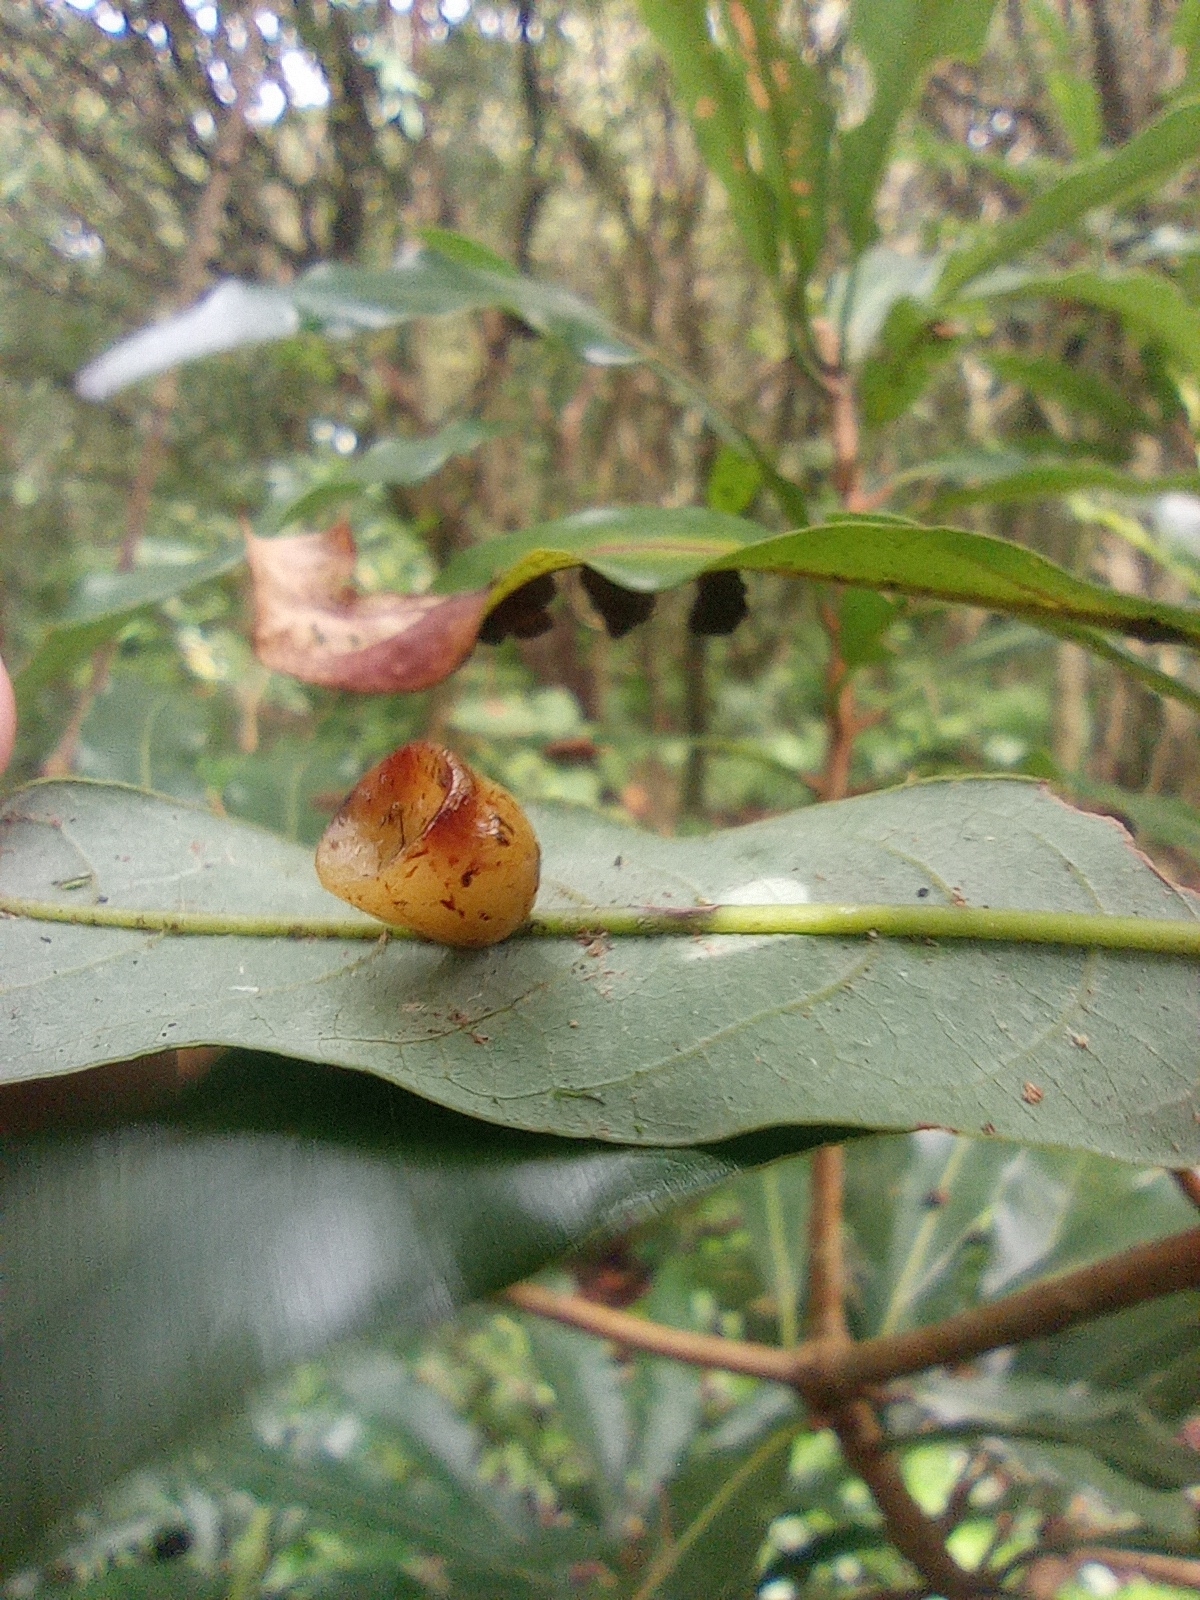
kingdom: Animalia
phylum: Arthropoda
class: Insecta
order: Diptera
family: Cecidomyiidae
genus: Odontokeros
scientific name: Odontokeros litseae
